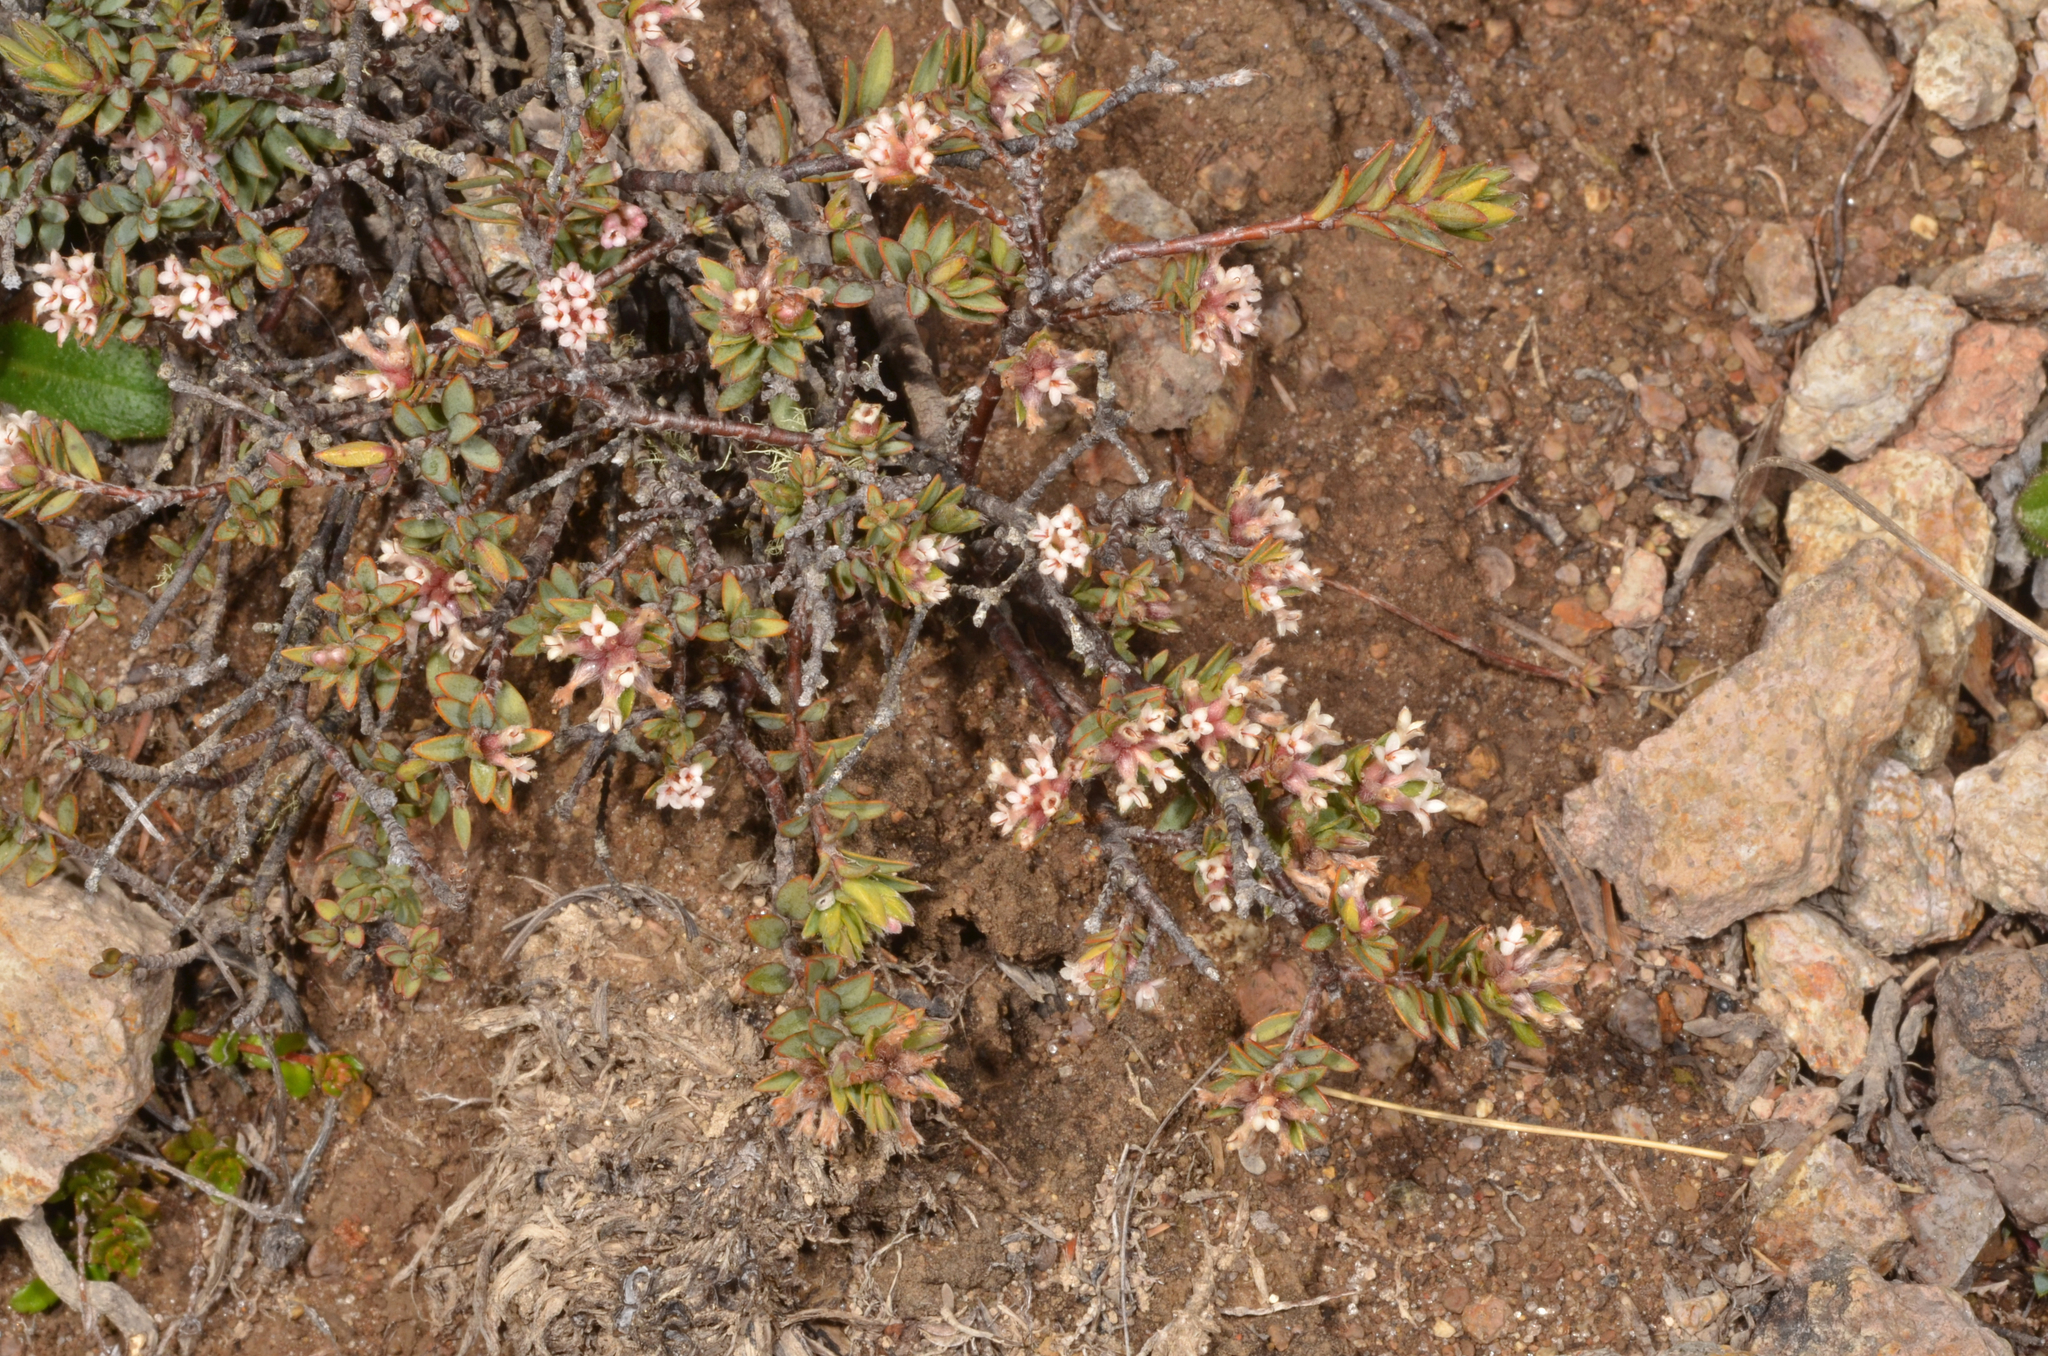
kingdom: Plantae
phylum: Tracheophyta
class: Magnoliopsida
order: Malvales
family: Thymelaeaceae
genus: Pimelea
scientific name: Pimelea oreophila
